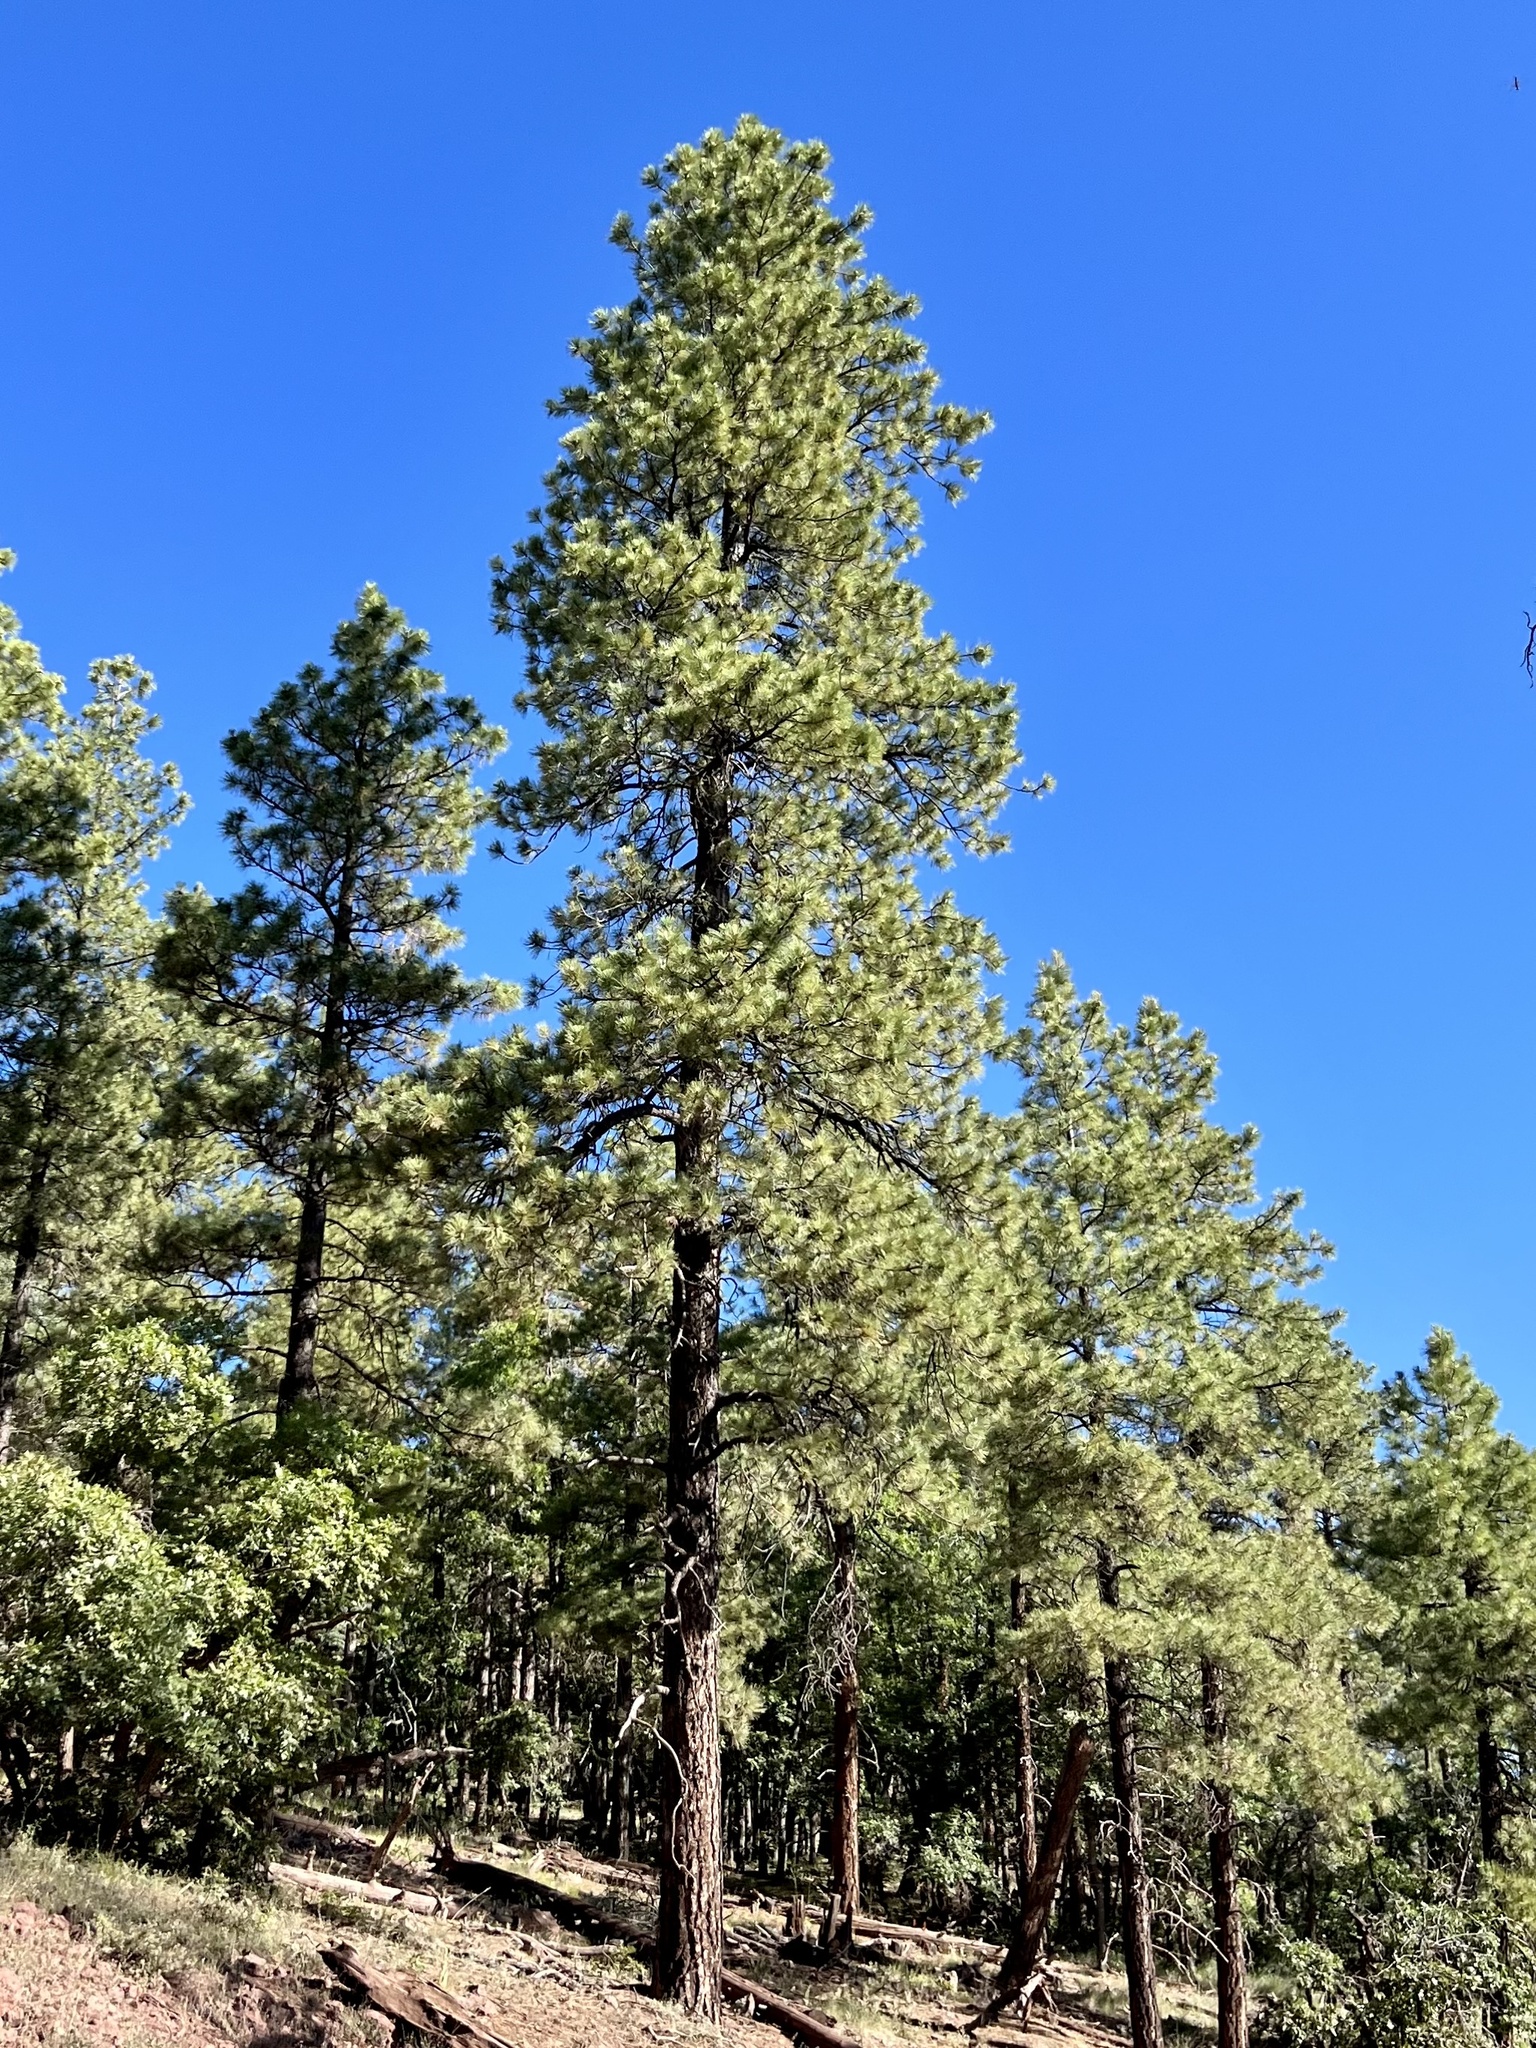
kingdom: Plantae
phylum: Tracheophyta
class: Pinopsida
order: Pinales
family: Pinaceae
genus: Pinus
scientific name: Pinus ponderosa
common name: Western yellow-pine
